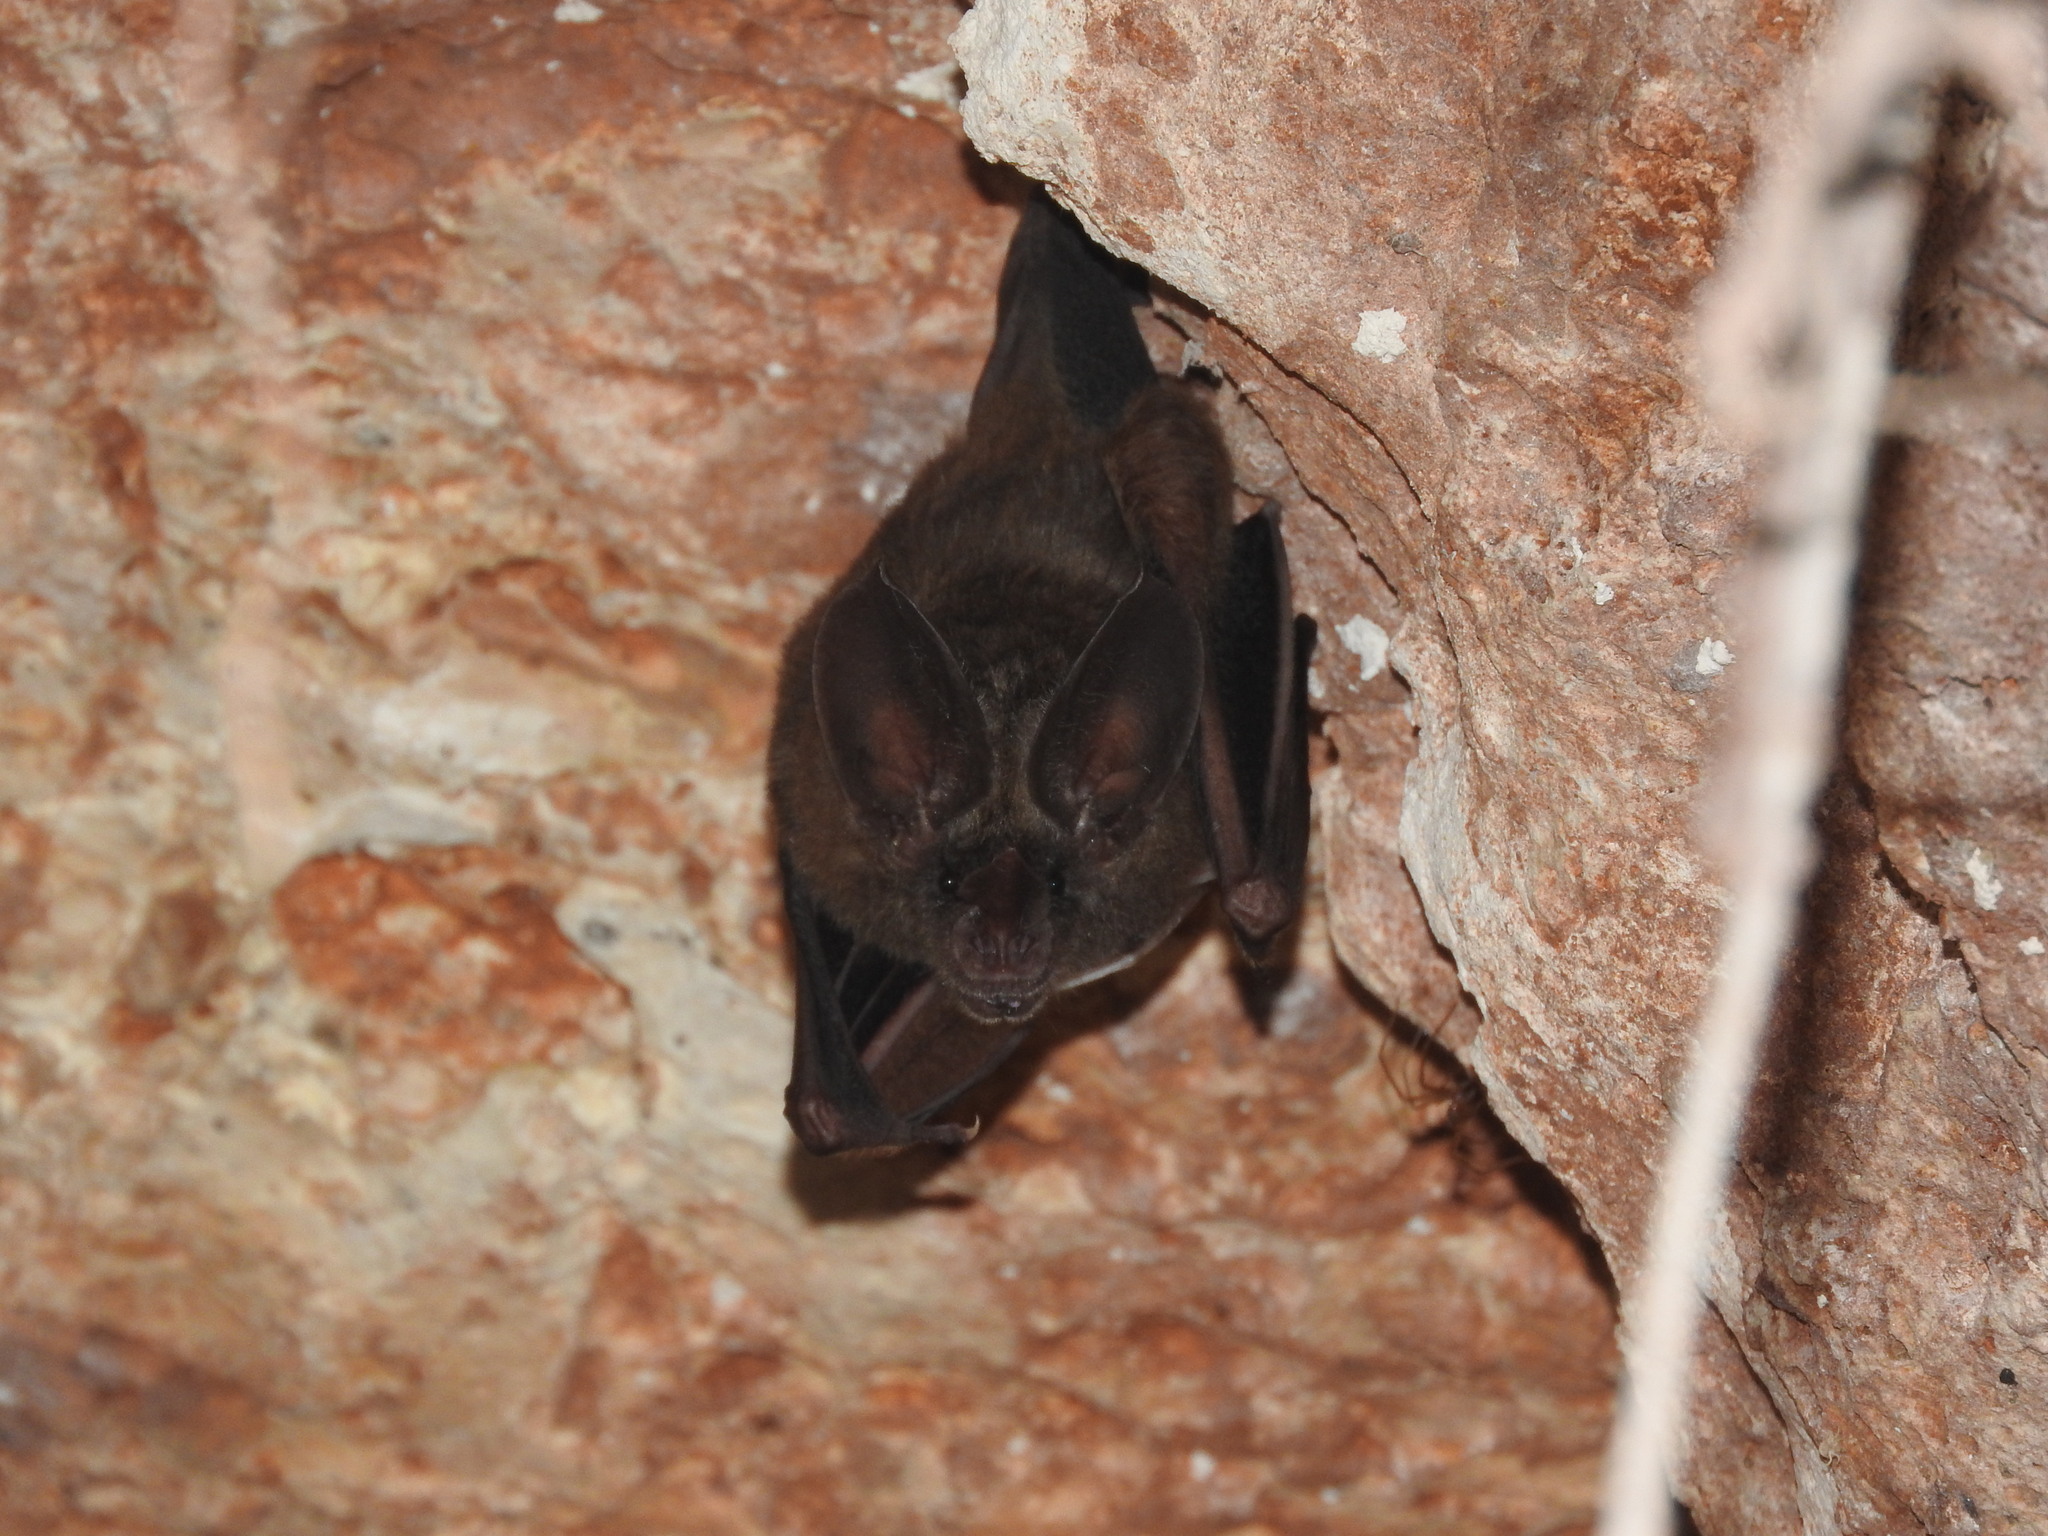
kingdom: Animalia
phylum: Chordata
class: Mammalia
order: Chiroptera
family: Phyllostomidae
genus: Mimon
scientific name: Mimon cozumelae
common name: Cozumelan golden bat
